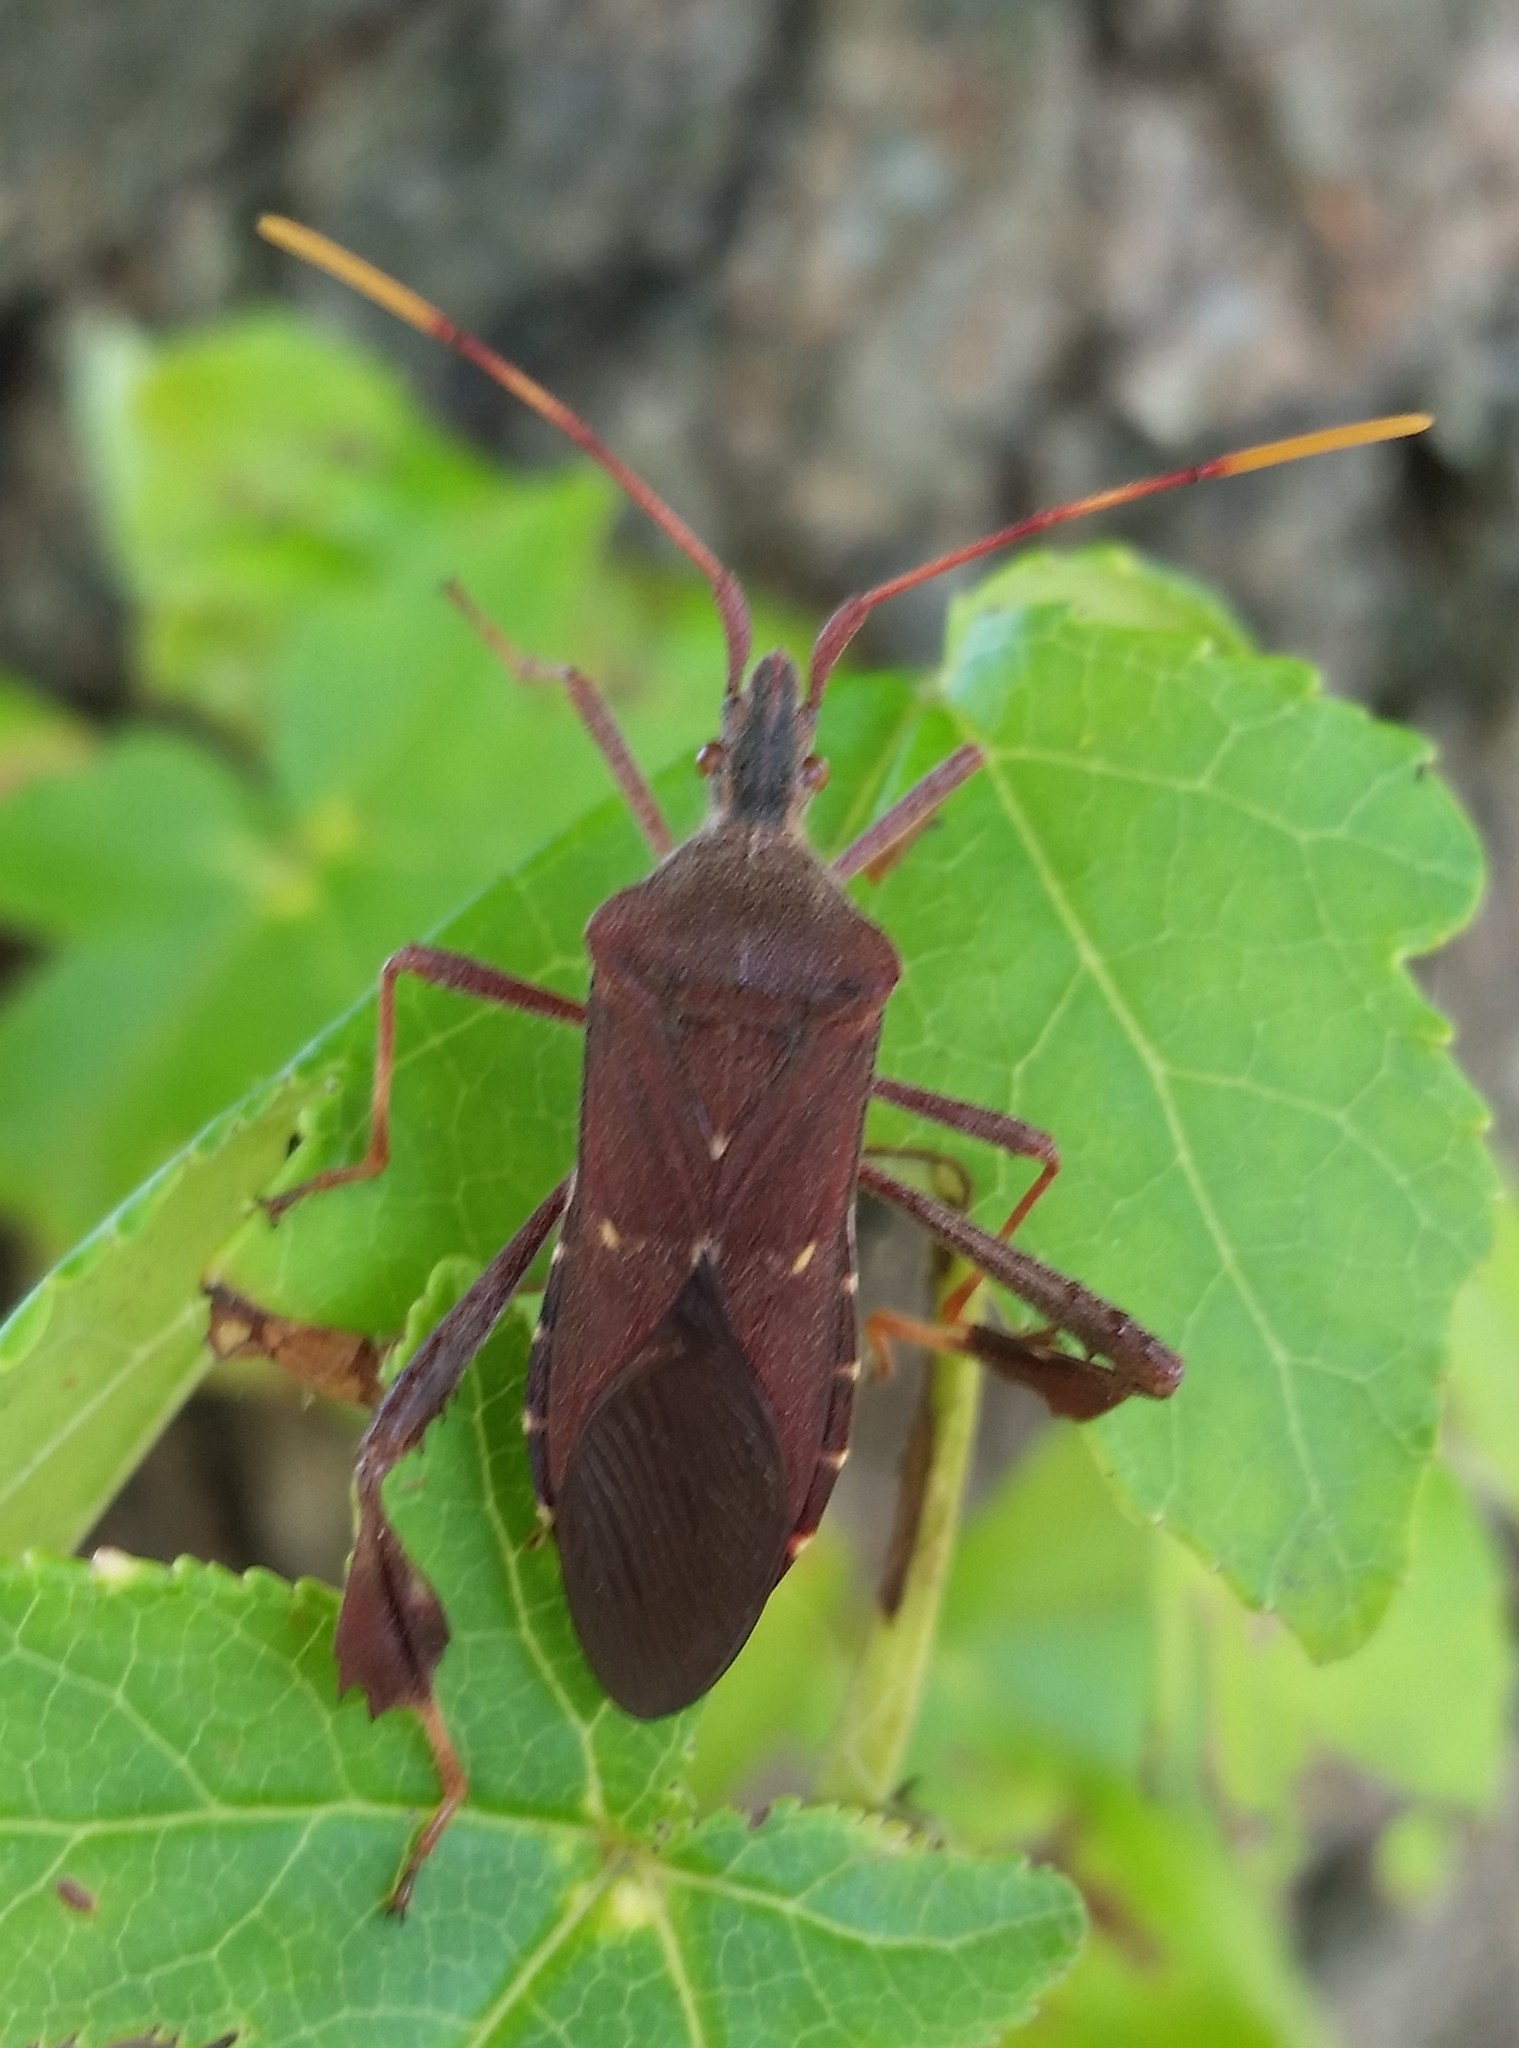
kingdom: Animalia
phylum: Arthropoda
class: Insecta
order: Hemiptera
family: Coreidae
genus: Leptoglossus
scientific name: Leptoglossus oppositus
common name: Northern leaf-footed bug
